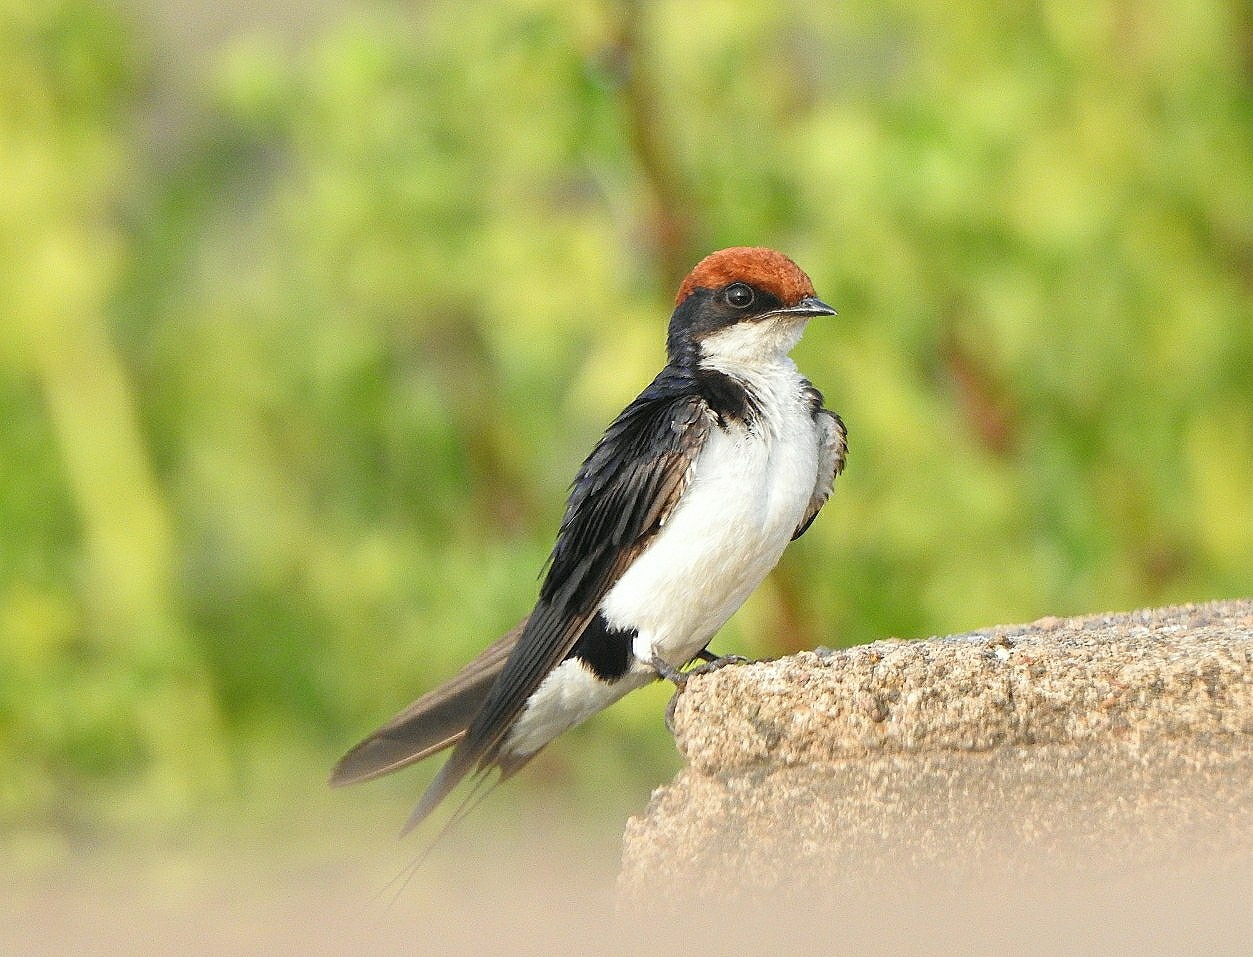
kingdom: Animalia
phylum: Chordata
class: Aves
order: Passeriformes
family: Hirundinidae
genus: Hirundo
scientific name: Hirundo smithii
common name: Wire-tailed swallow
